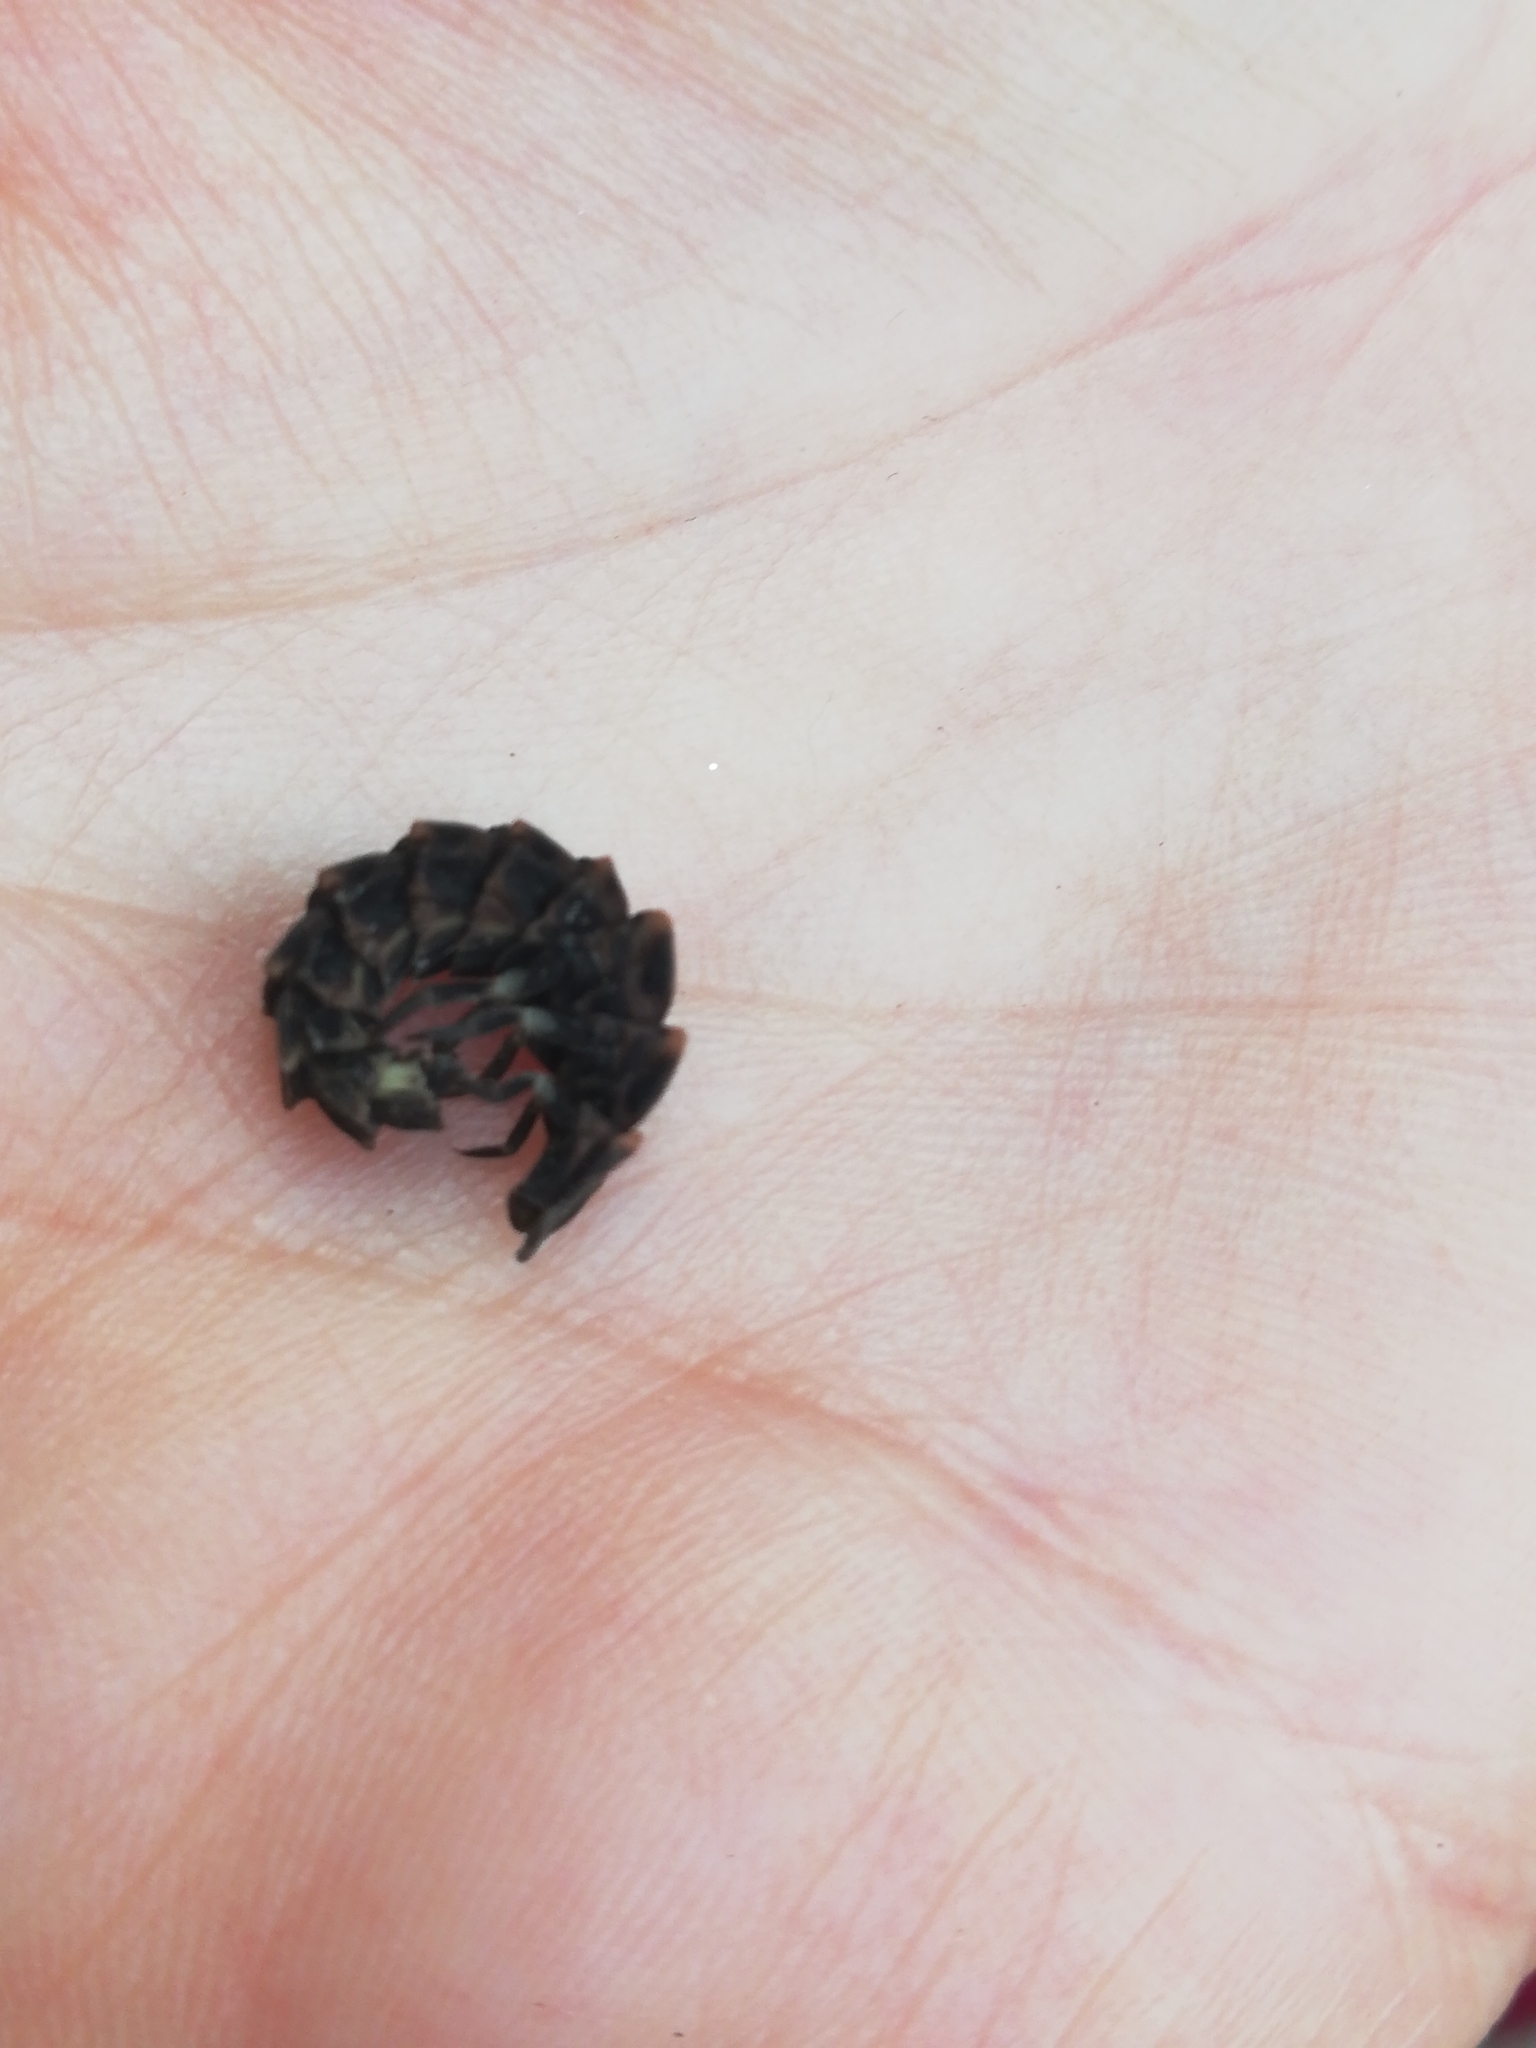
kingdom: Animalia
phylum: Arthropoda
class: Insecta
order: Coleoptera
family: Lampyridae
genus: Lampyris
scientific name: Lampyris noctiluca
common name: Glow-worm
